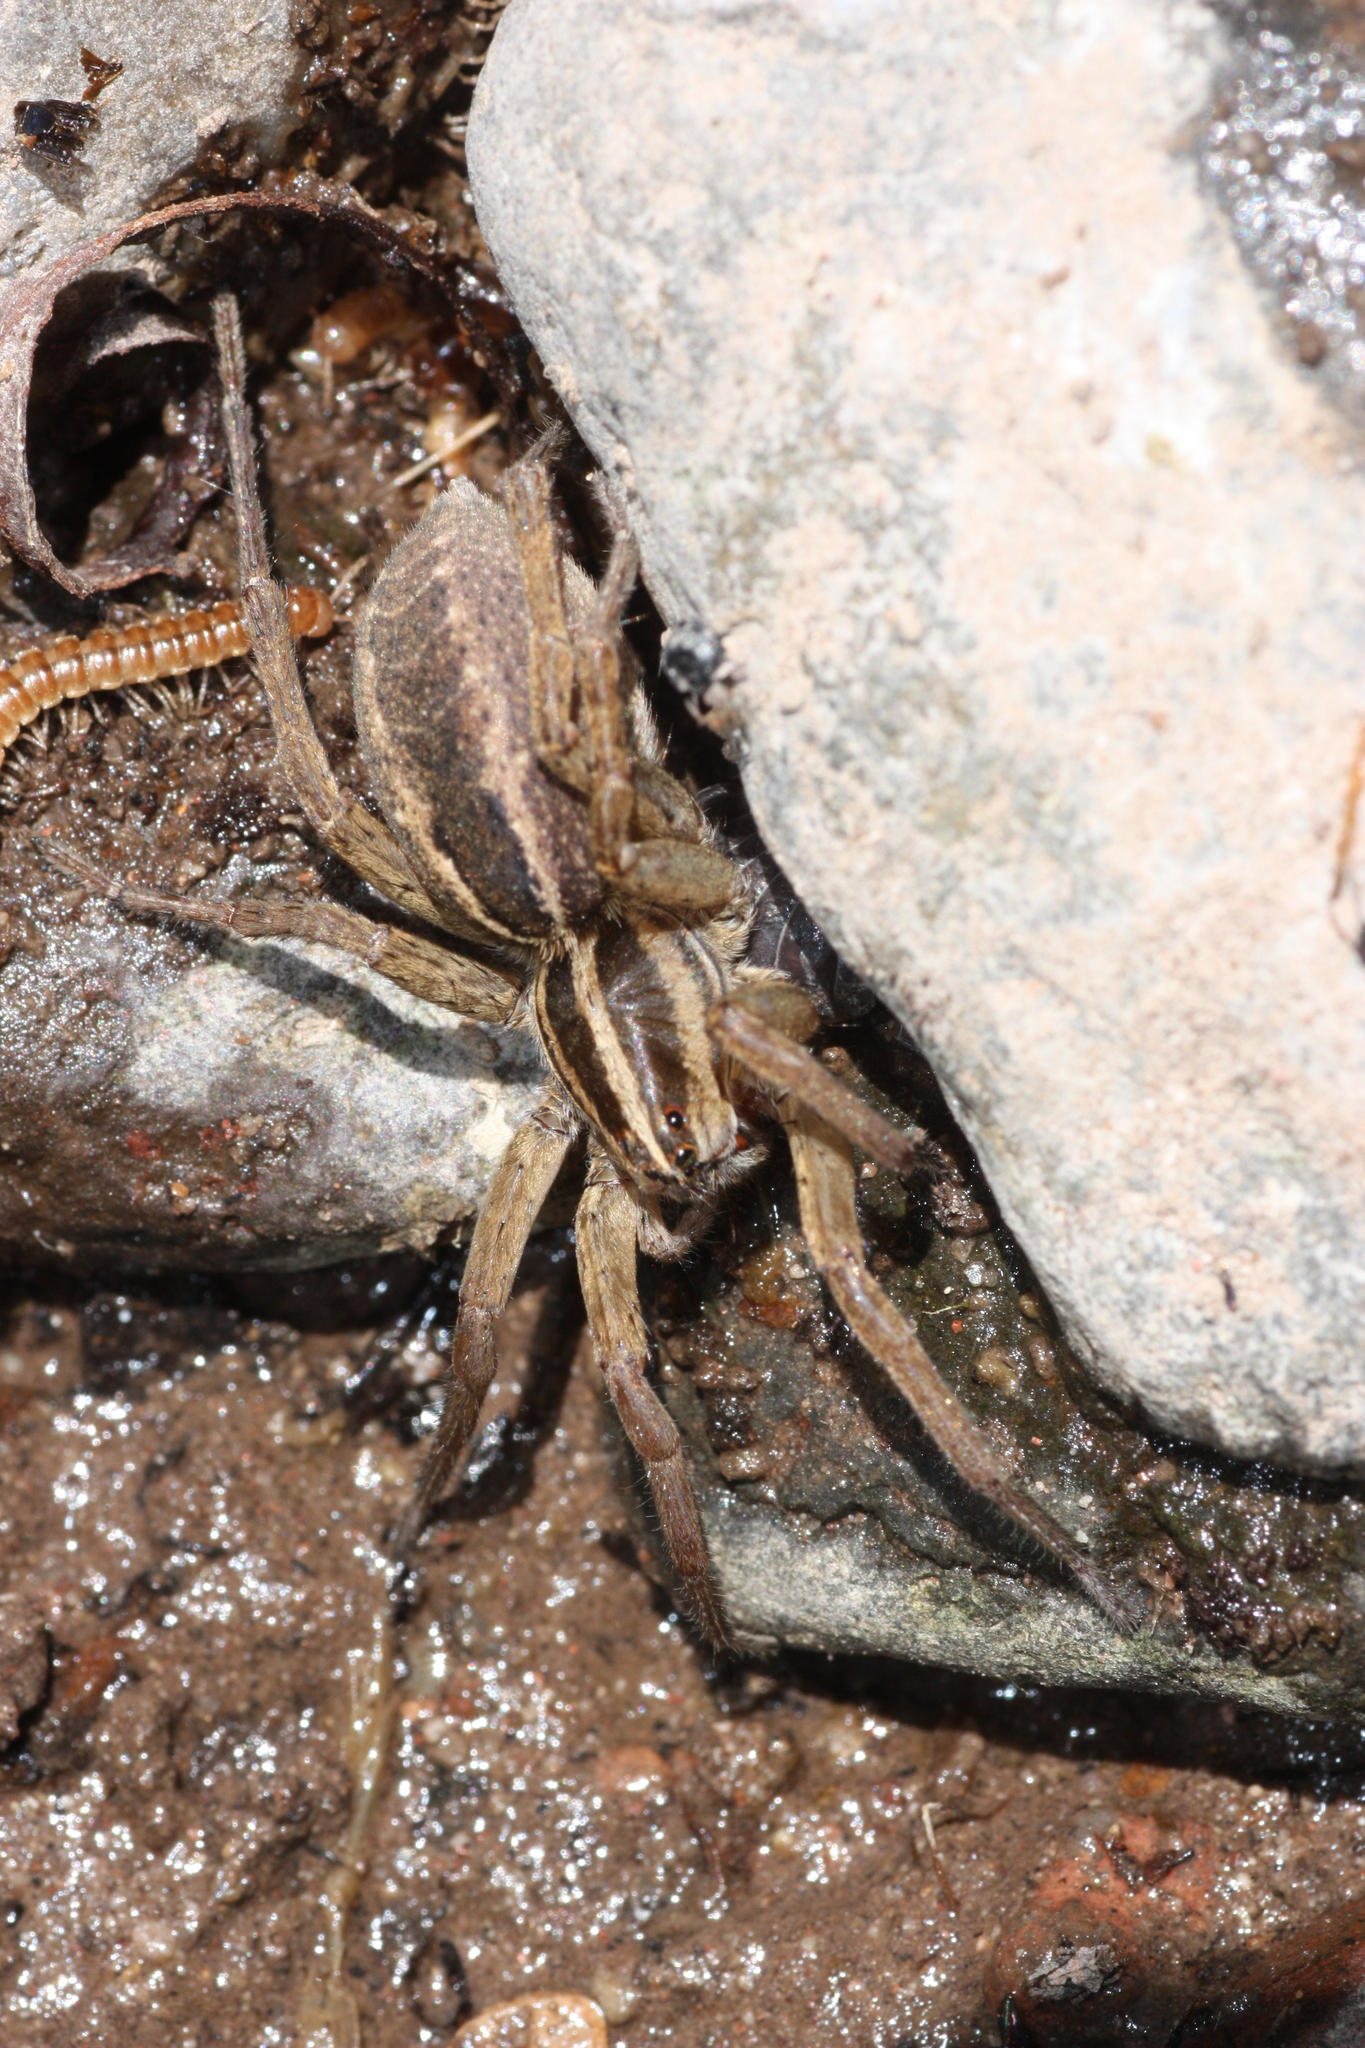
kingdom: Animalia
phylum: Arthropoda
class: Arachnida
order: Araneae
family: Lycosidae
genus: Rabidosa
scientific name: Rabidosa santrita
